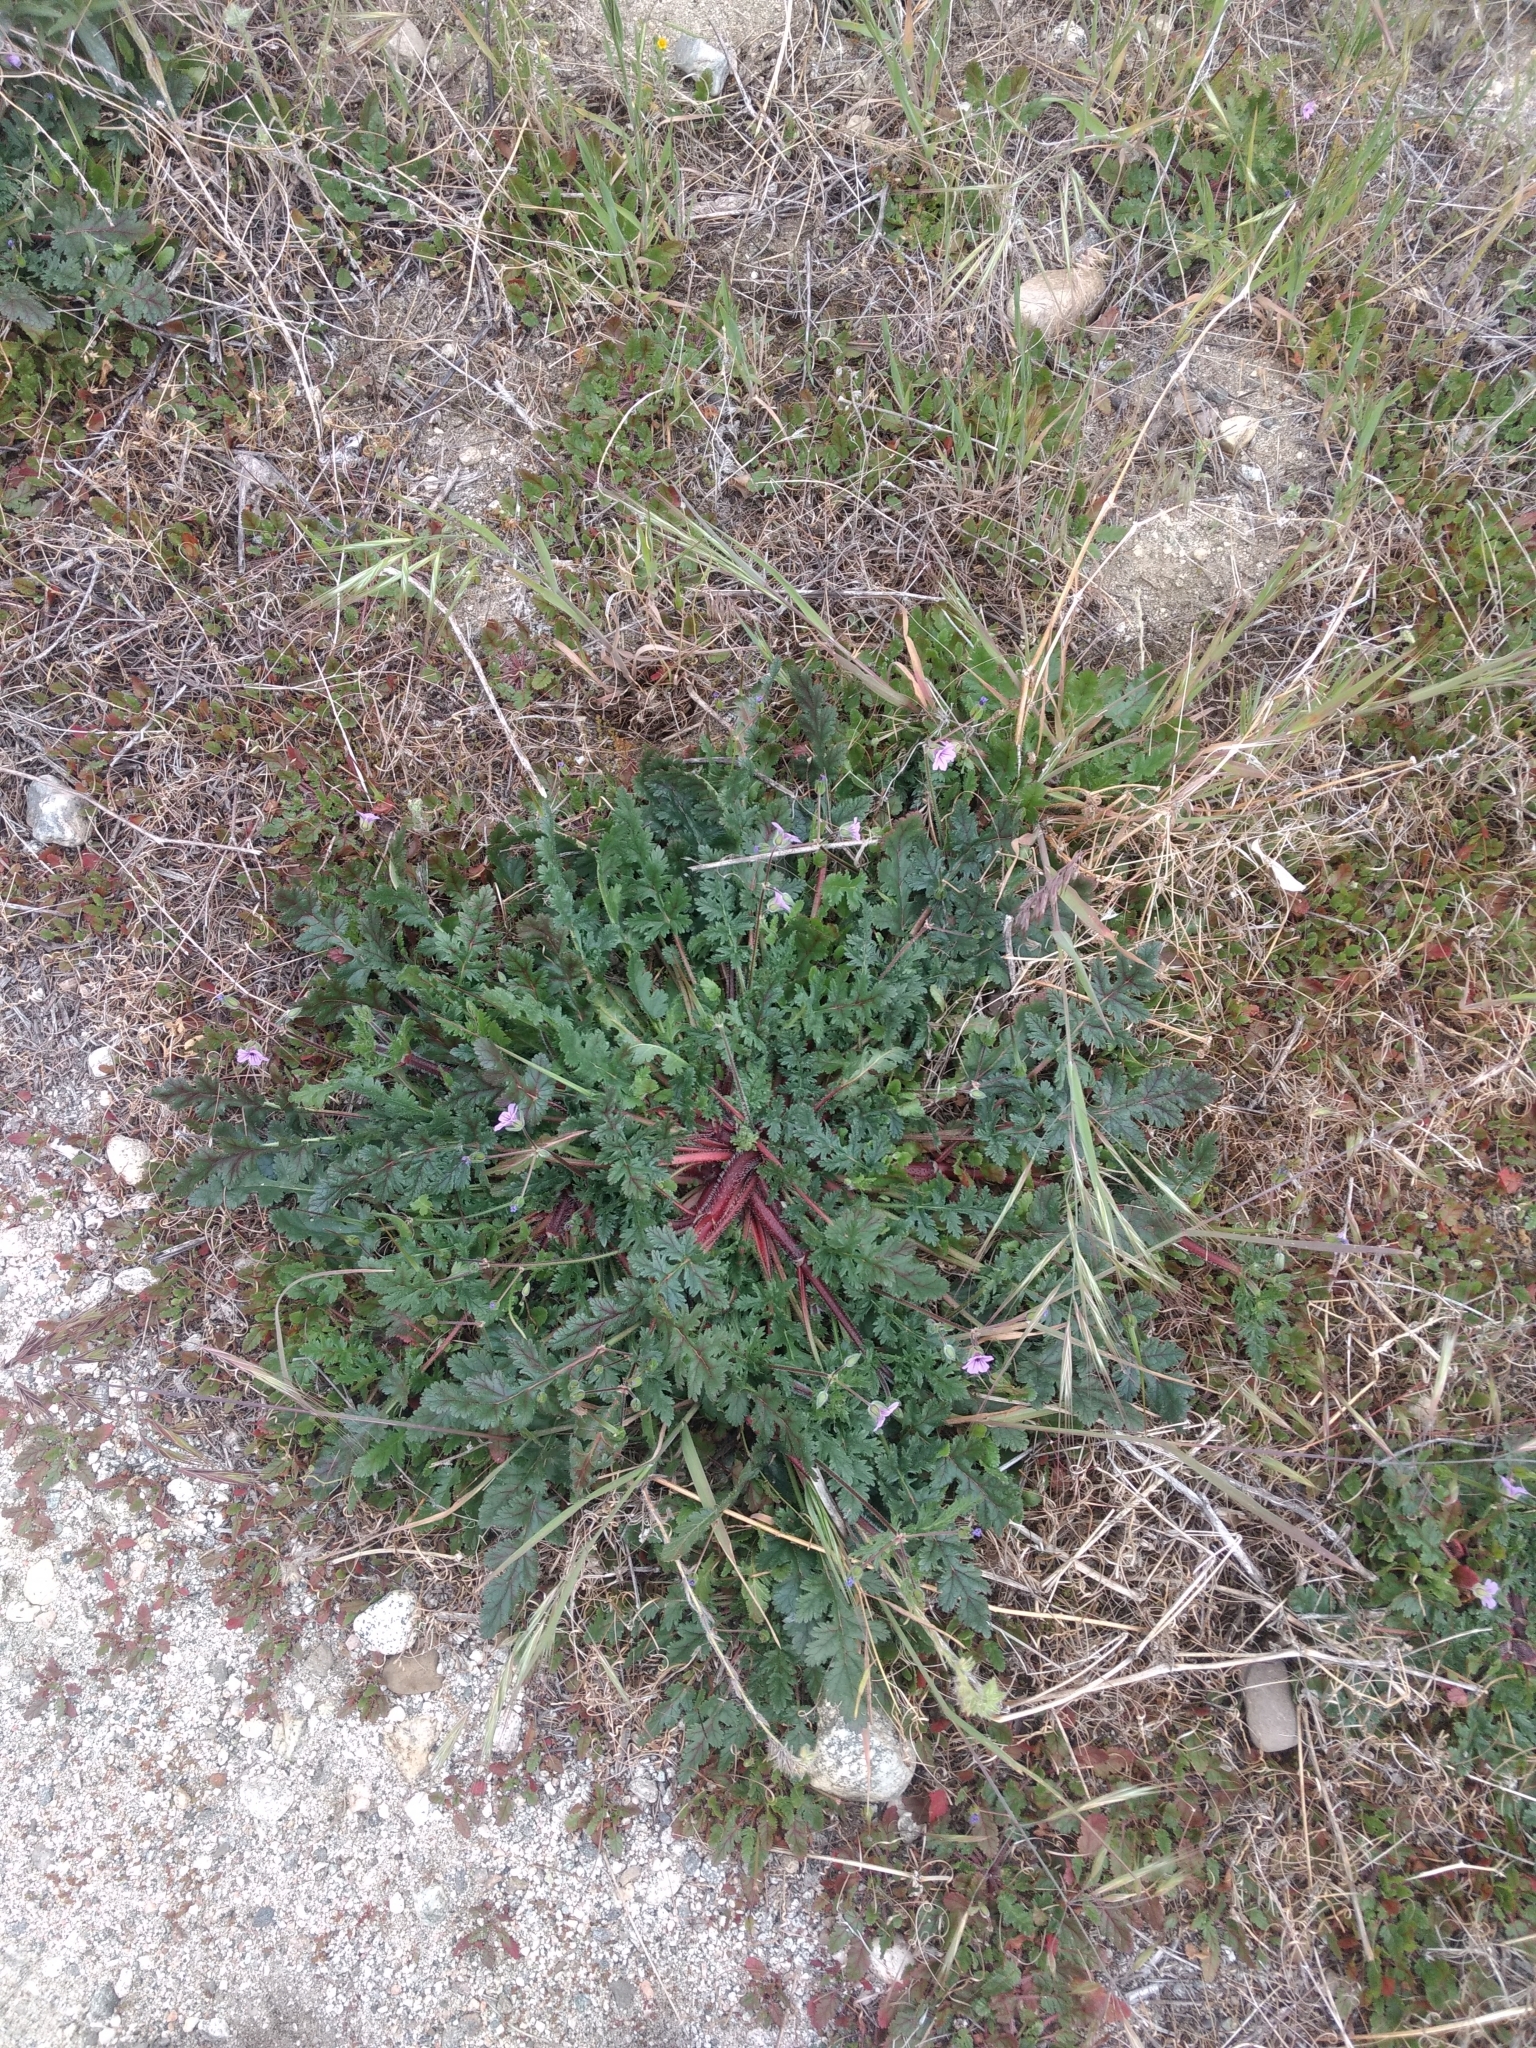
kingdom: Plantae
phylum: Tracheophyta
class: Magnoliopsida
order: Geraniales
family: Geraniaceae
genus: Erodium
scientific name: Erodium botrys
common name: Mediterranean stork's-bill
